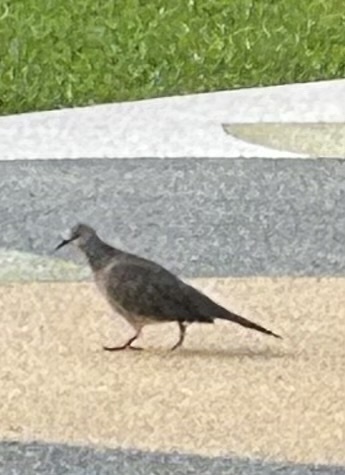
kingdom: Animalia
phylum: Chordata
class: Aves
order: Columbiformes
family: Columbidae
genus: Spilopelia
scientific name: Spilopelia chinensis
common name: Spotted dove
